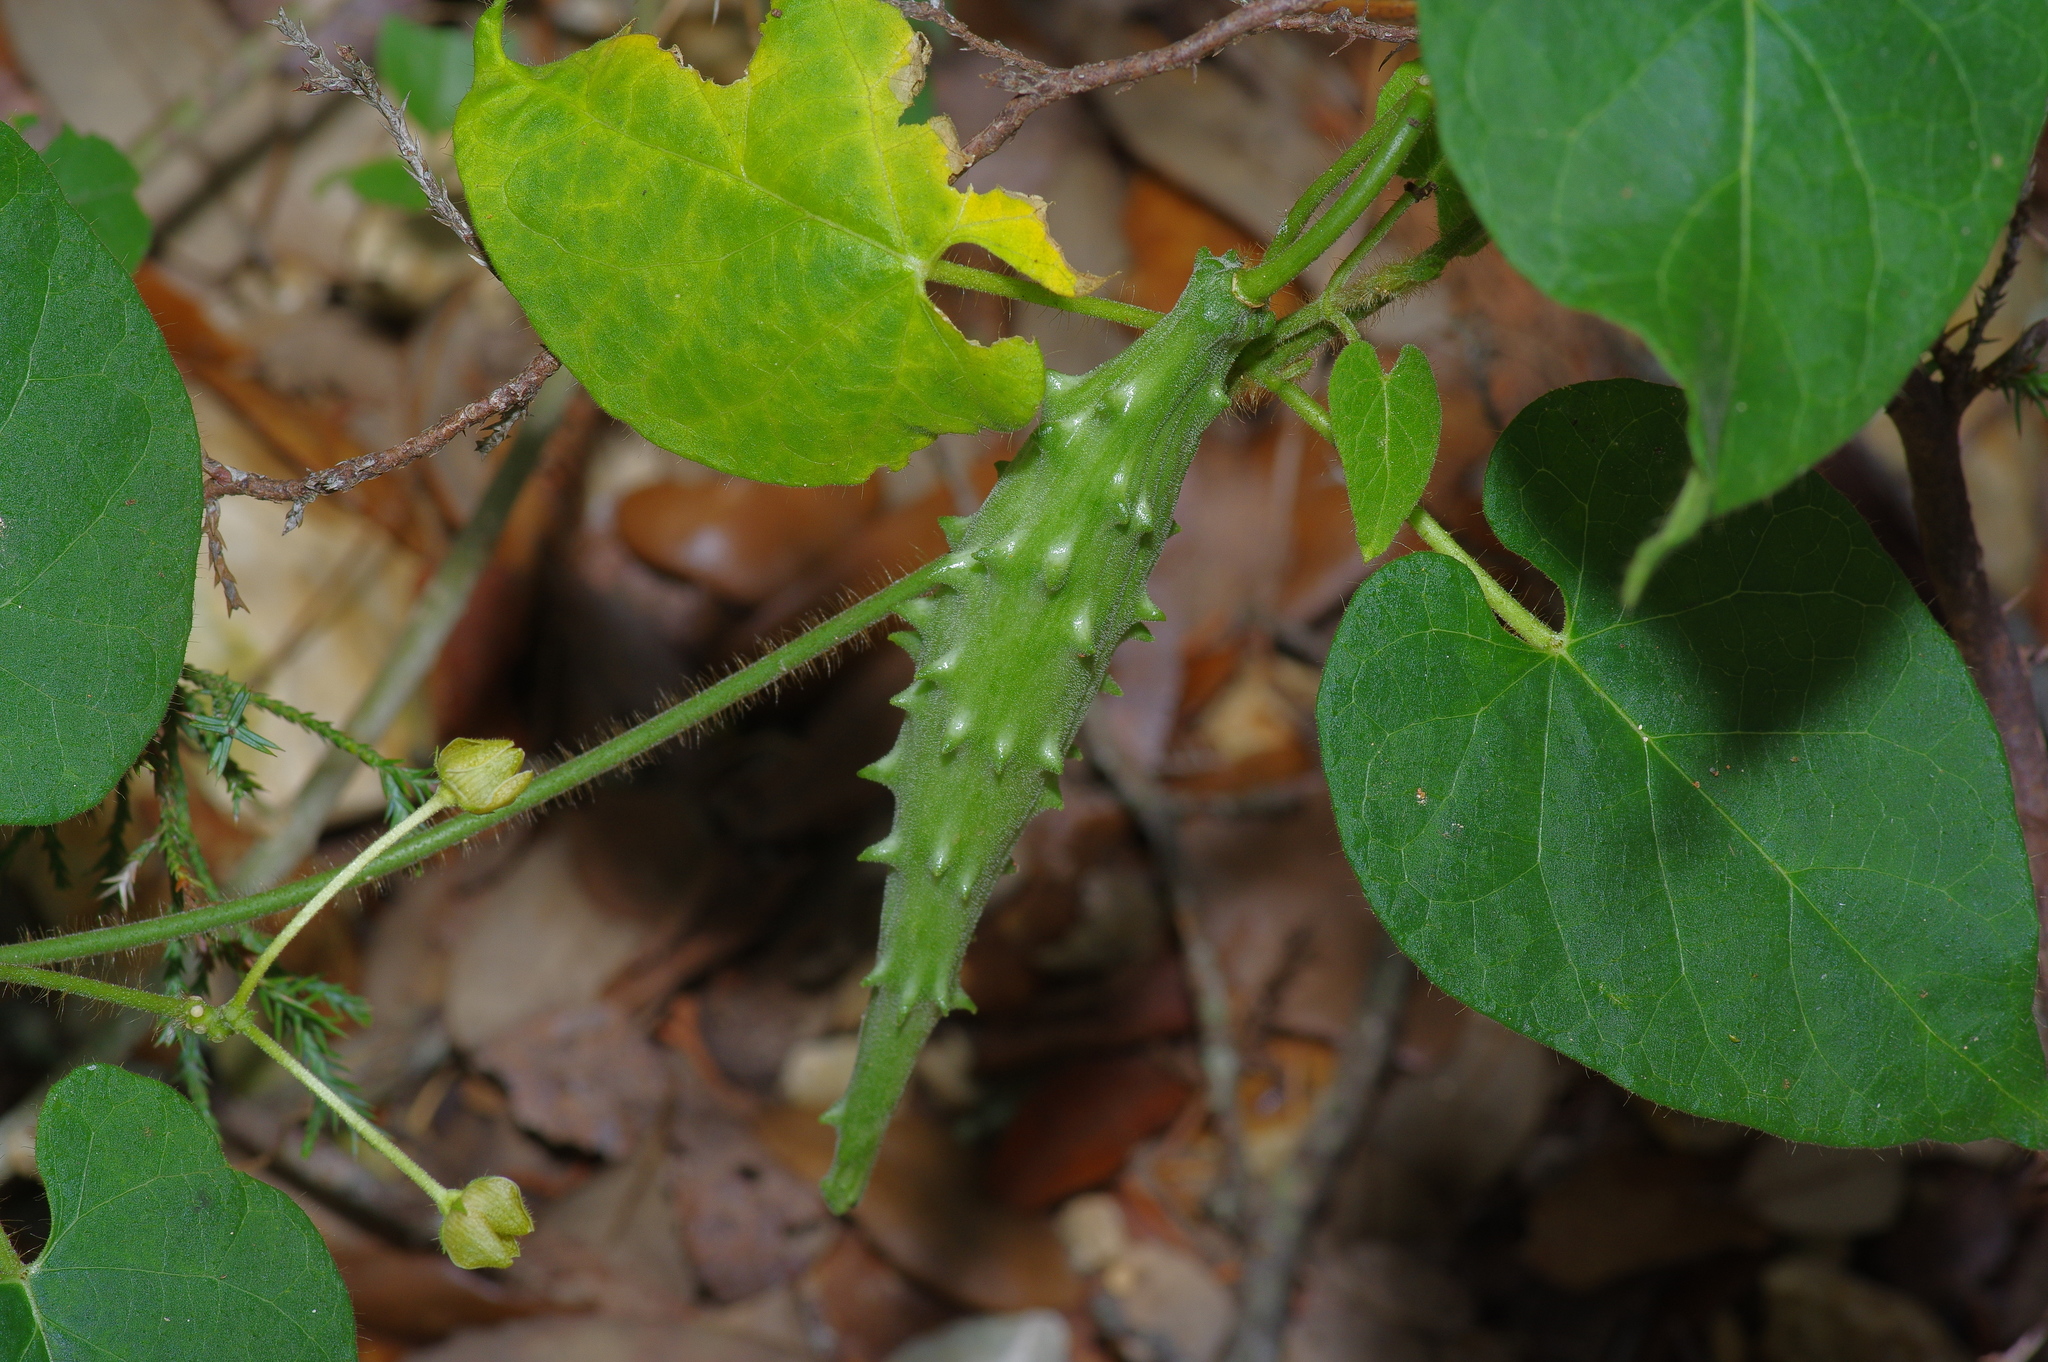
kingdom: Plantae
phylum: Tracheophyta
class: Magnoliopsida
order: Gentianales
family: Apocynaceae
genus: Dictyanthus
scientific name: Dictyanthus reticulatus
